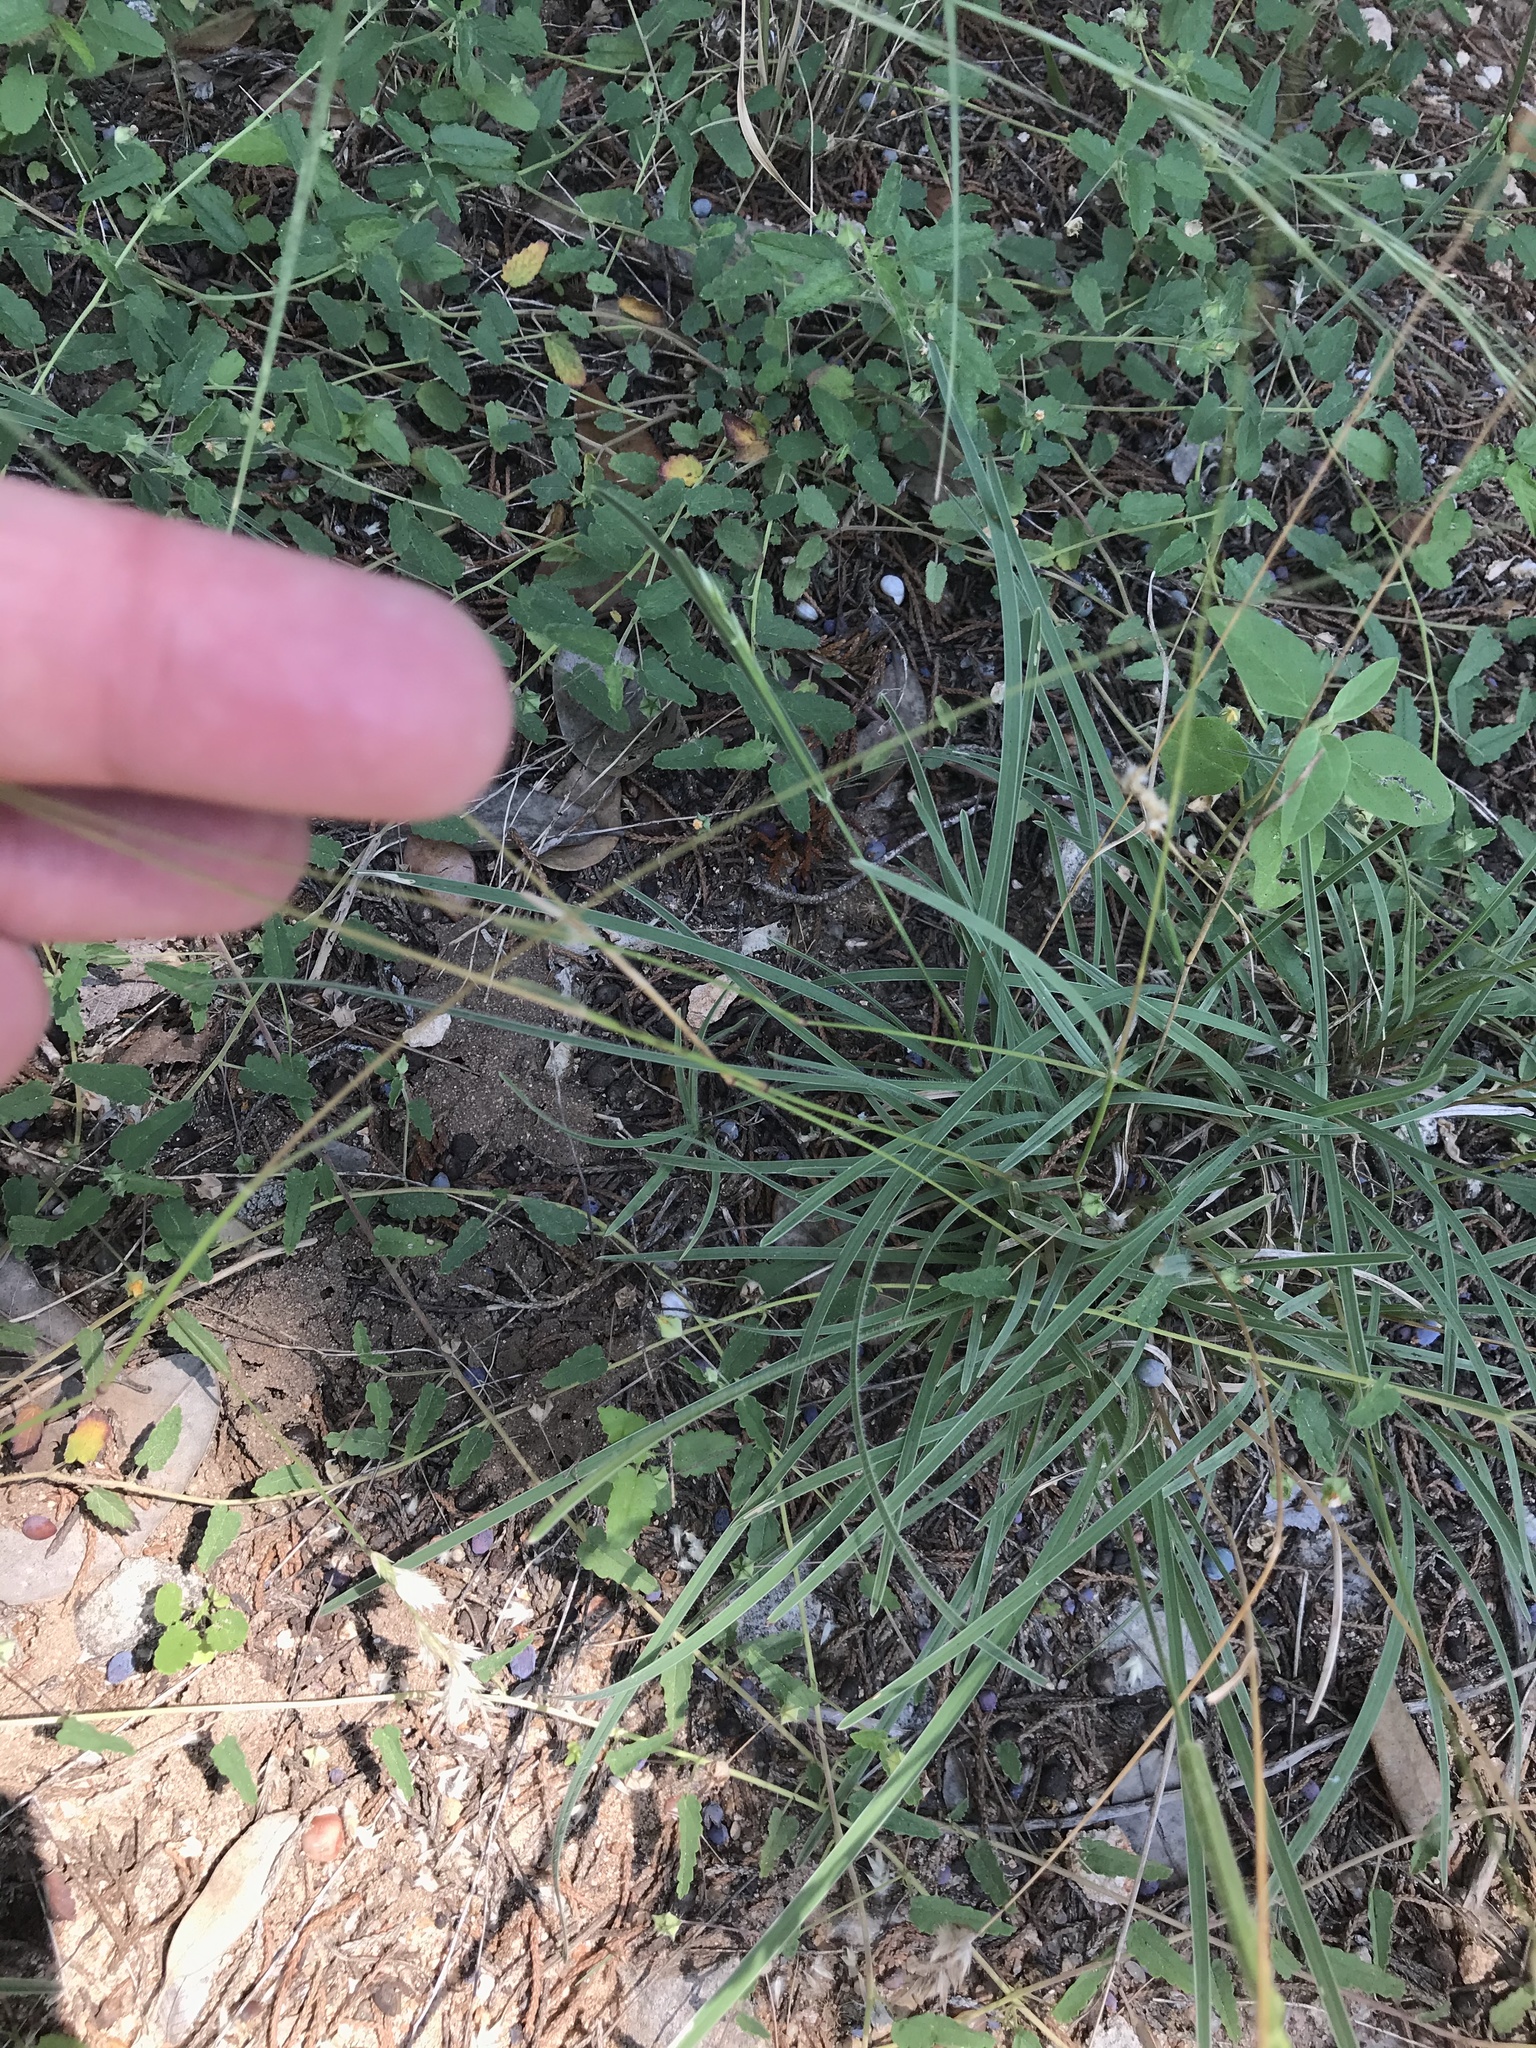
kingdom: Plantae
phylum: Tracheophyta
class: Liliopsida
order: Poales
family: Poaceae
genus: Erioneuron
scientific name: Erioneuron pilosum
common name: Hairy woolly grass
